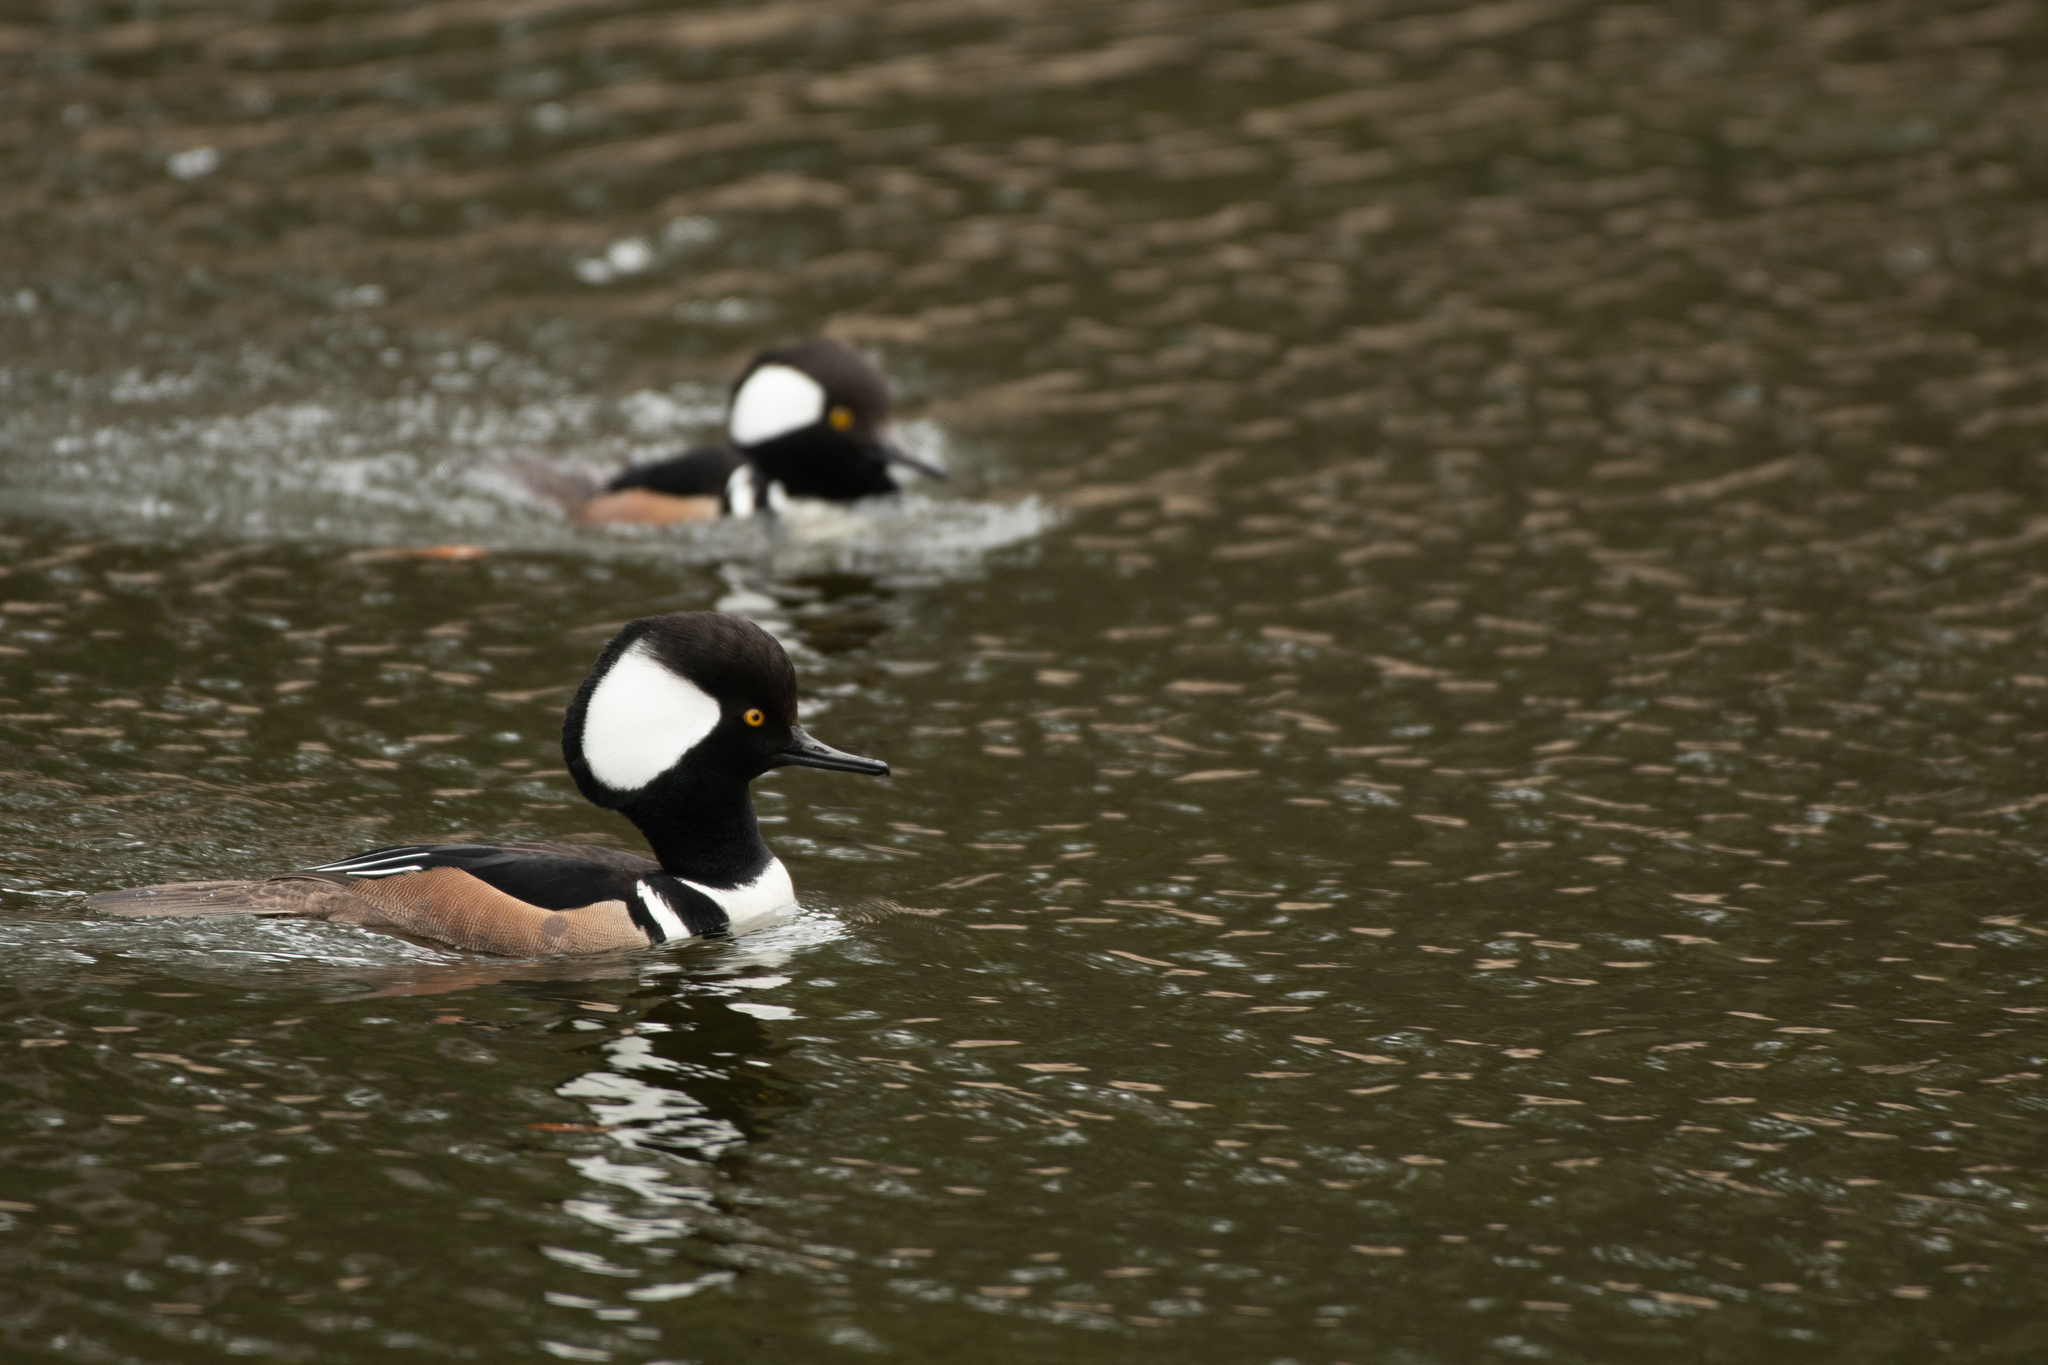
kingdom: Animalia
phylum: Chordata
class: Aves
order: Anseriformes
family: Anatidae
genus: Lophodytes
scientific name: Lophodytes cucullatus
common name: Hooded merganser
